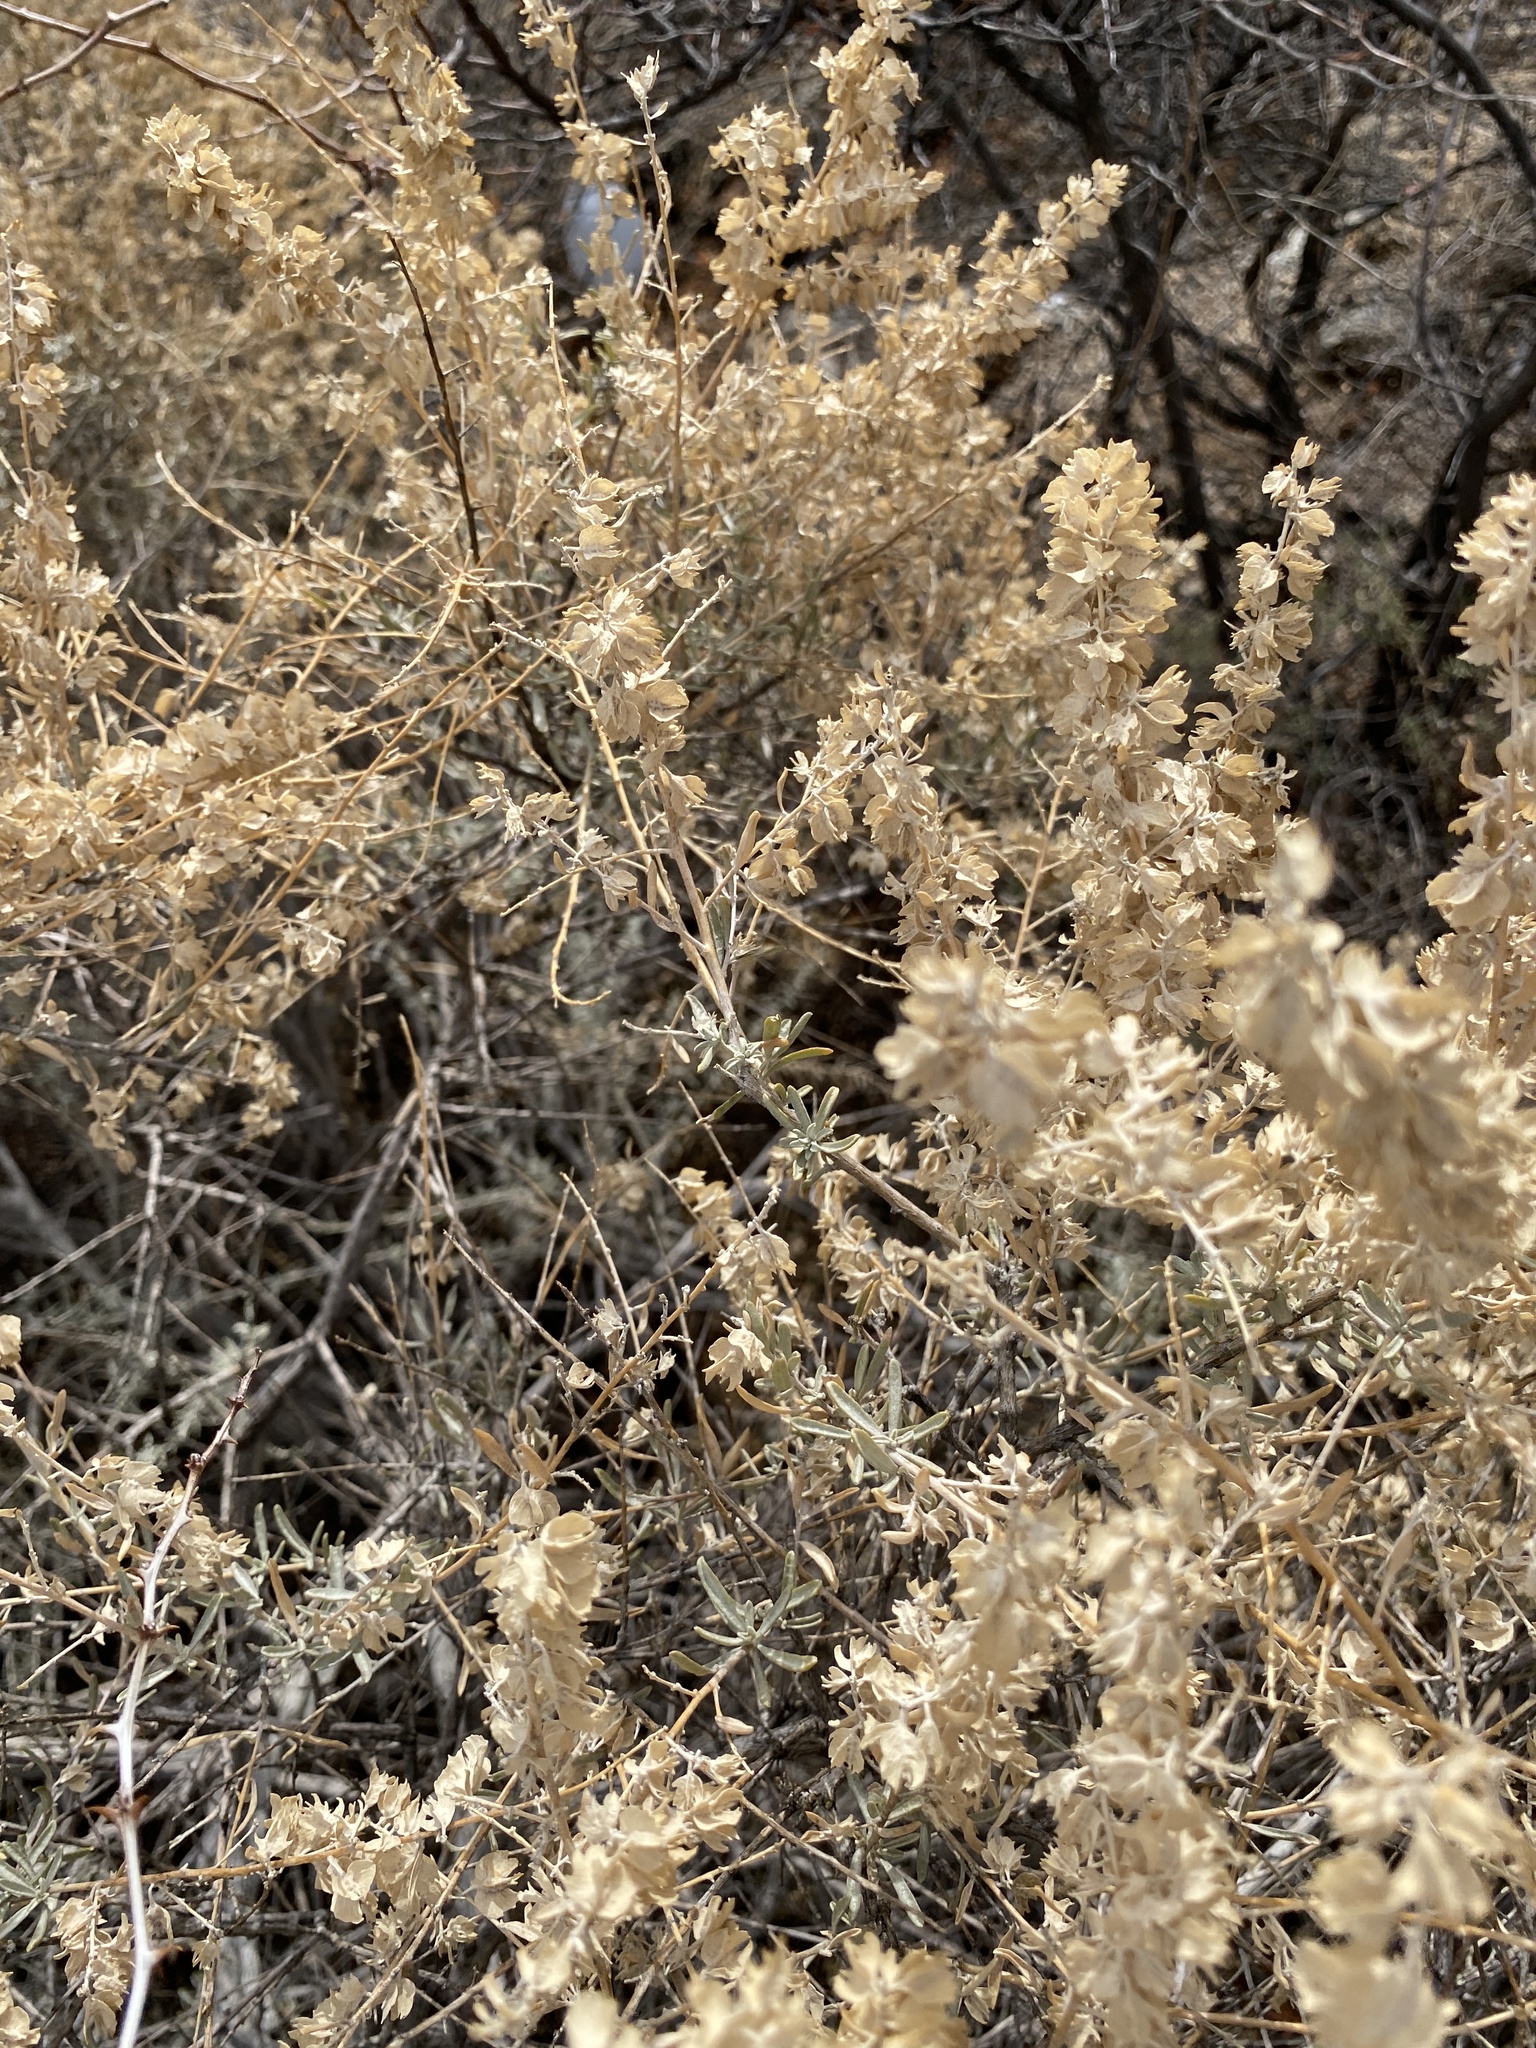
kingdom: Plantae
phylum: Tracheophyta
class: Magnoliopsida
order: Caryophyllales
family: Amaranthaceae
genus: Atriplex
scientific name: Atriplex canescens
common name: Four-wing saltbush
